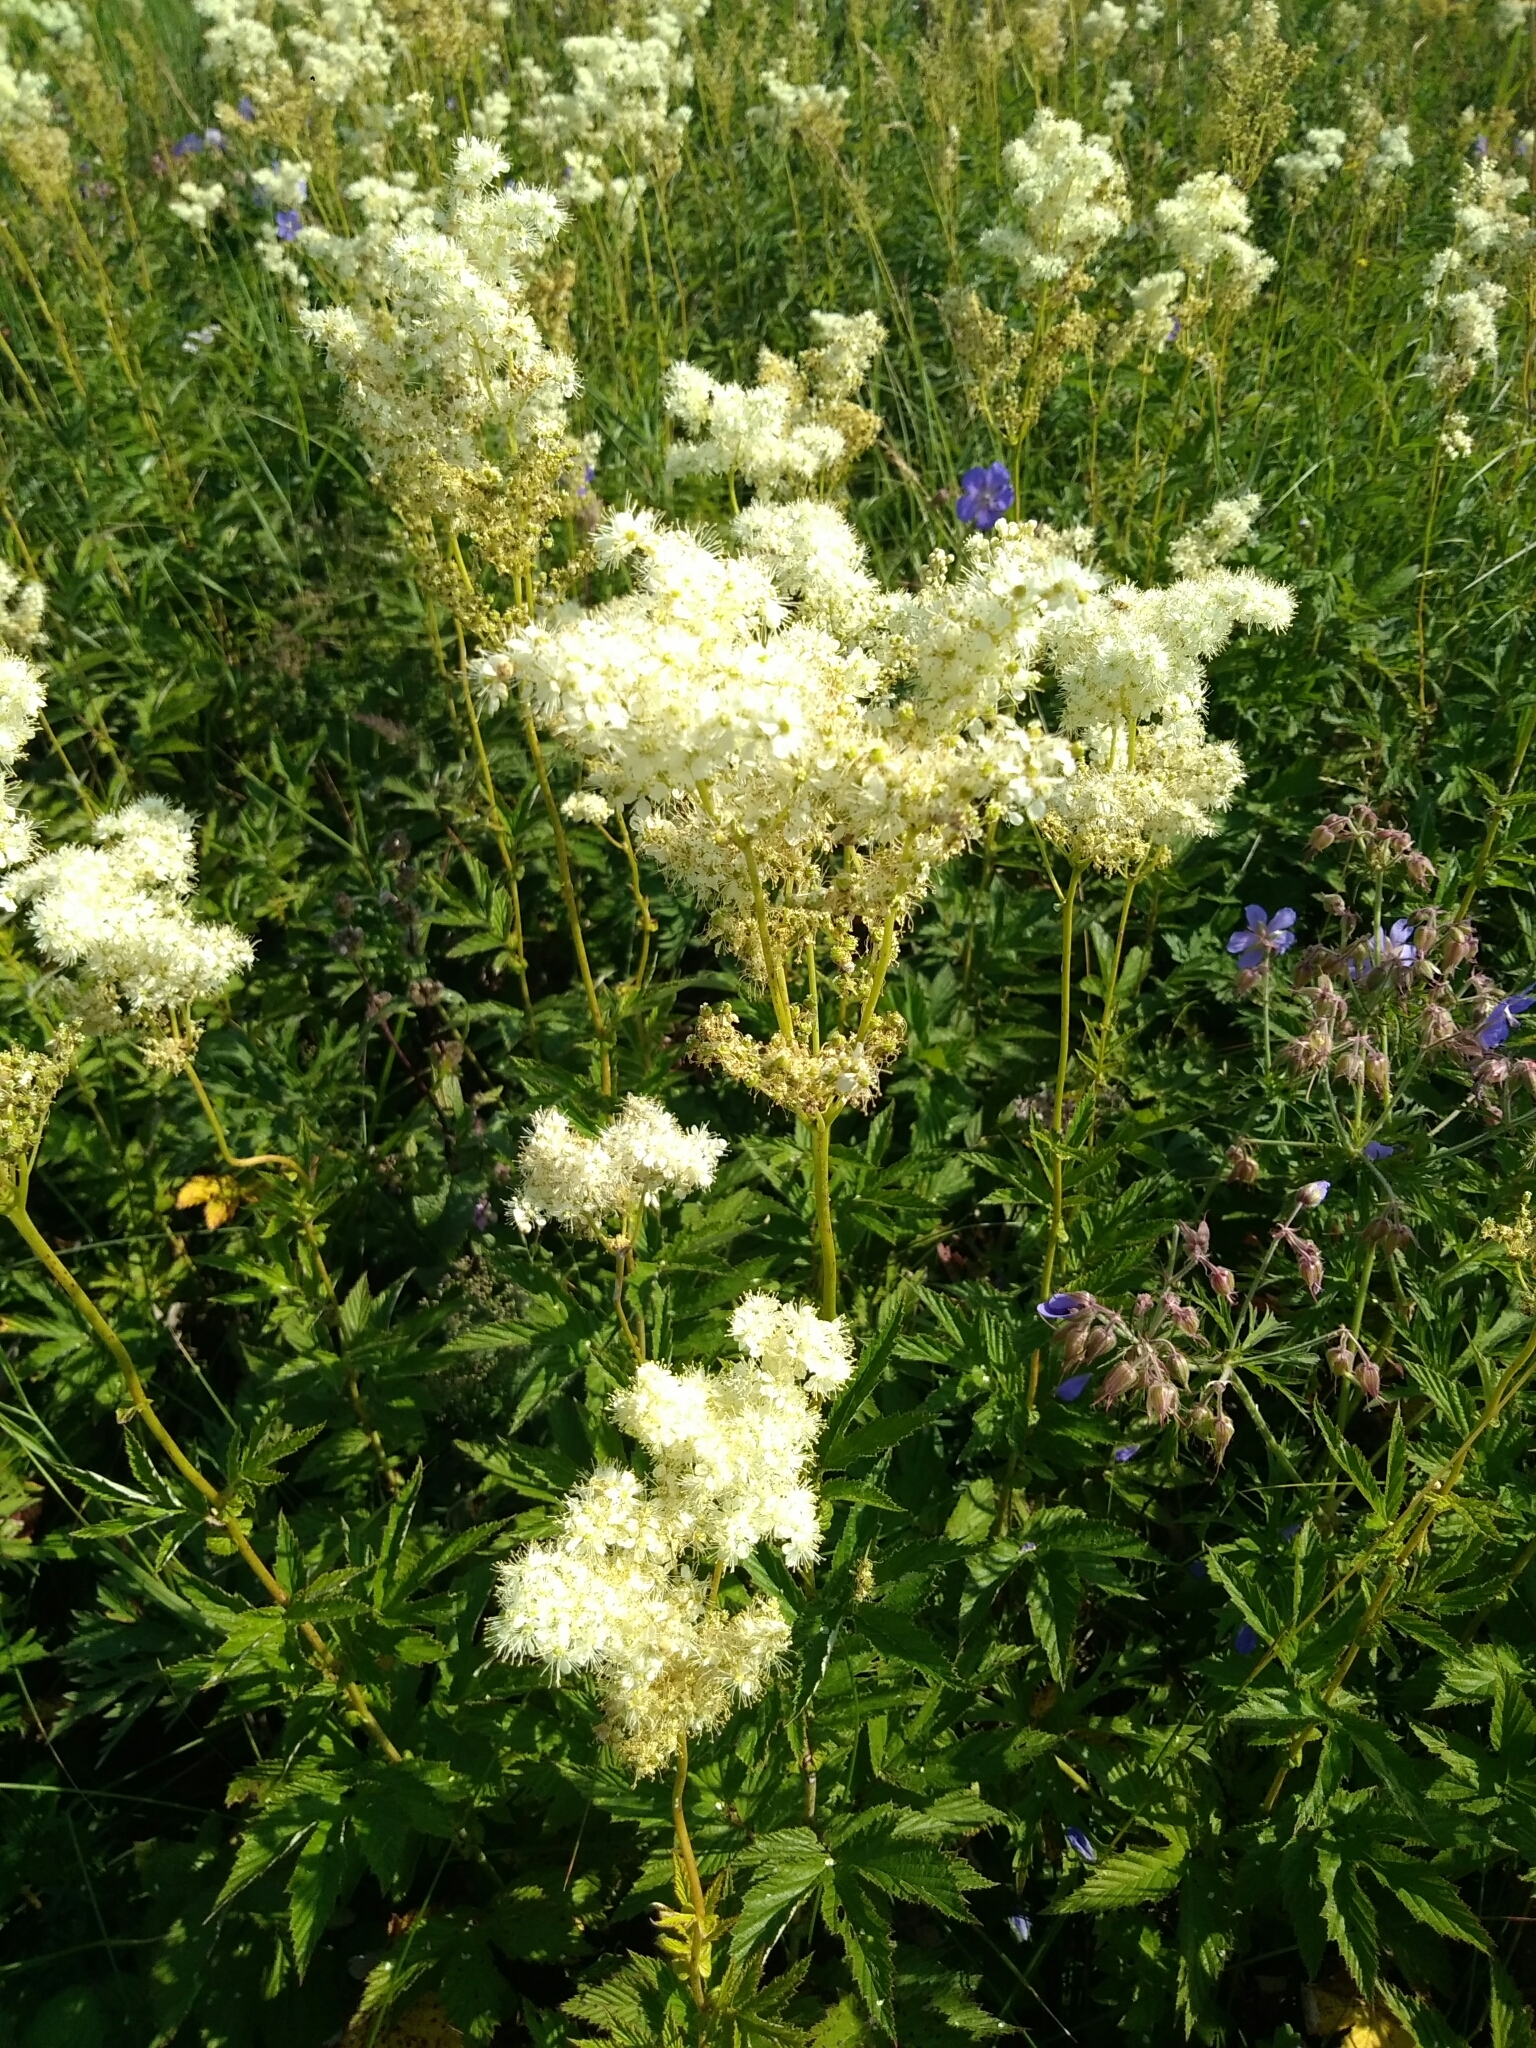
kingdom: Plantae
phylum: Tracheophyta
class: Magnoliopsida
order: Rosales
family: Rosaceae
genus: Filipendula
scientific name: Filipendula ulmaria
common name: Meadowsweet
